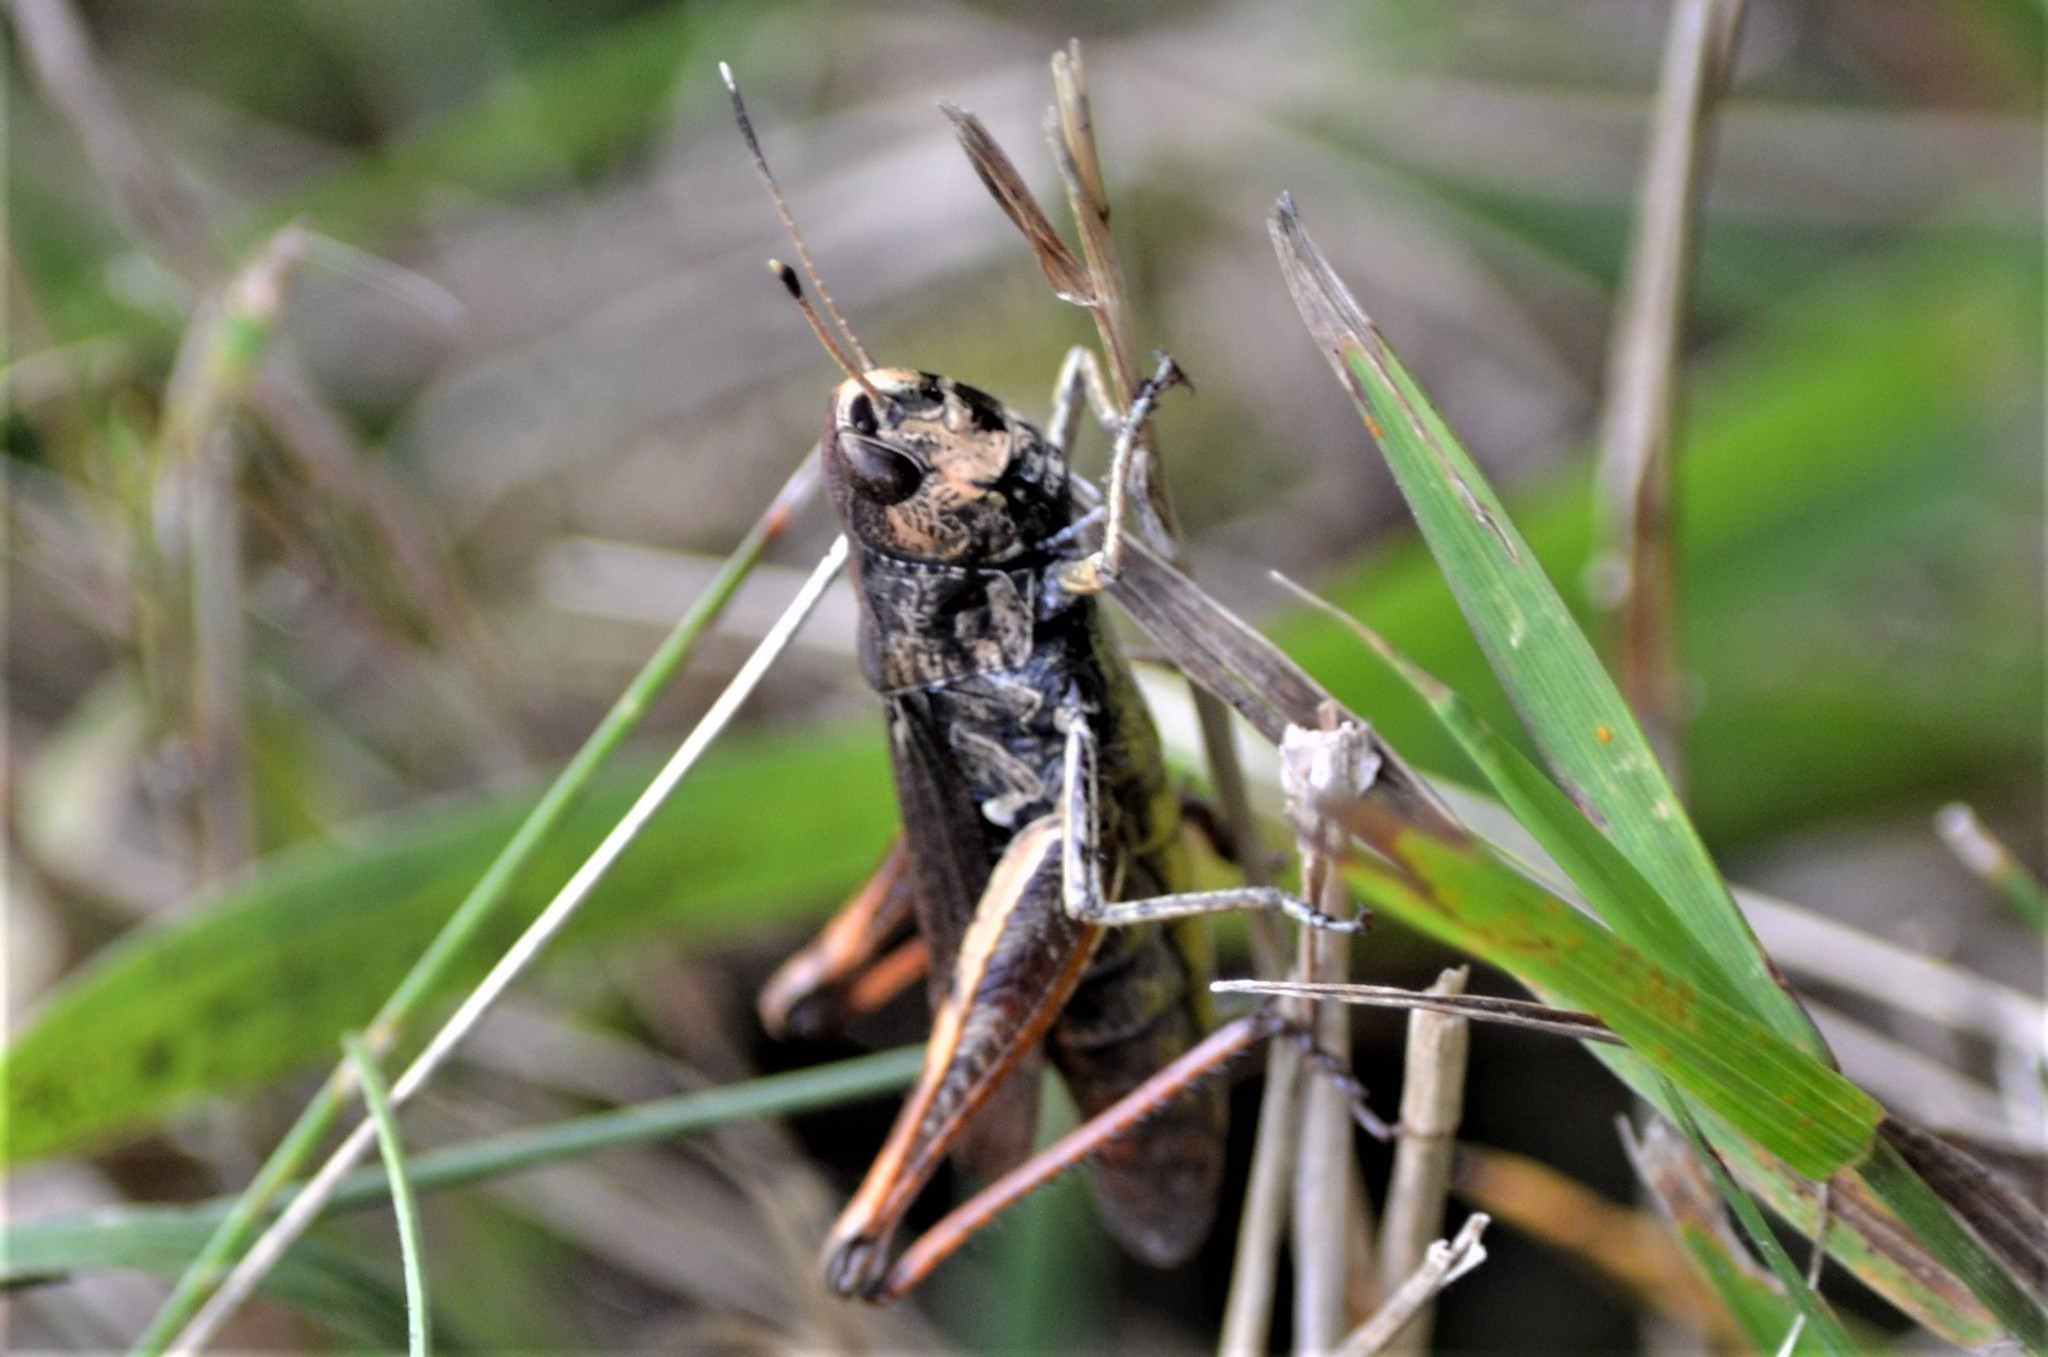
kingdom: Animalia
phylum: Arthropoda
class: Insecta
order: Orthoptera
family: Acrididae
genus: Gomphocerippus
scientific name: Gomphocerippus rufus
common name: Rufous grasshopper
